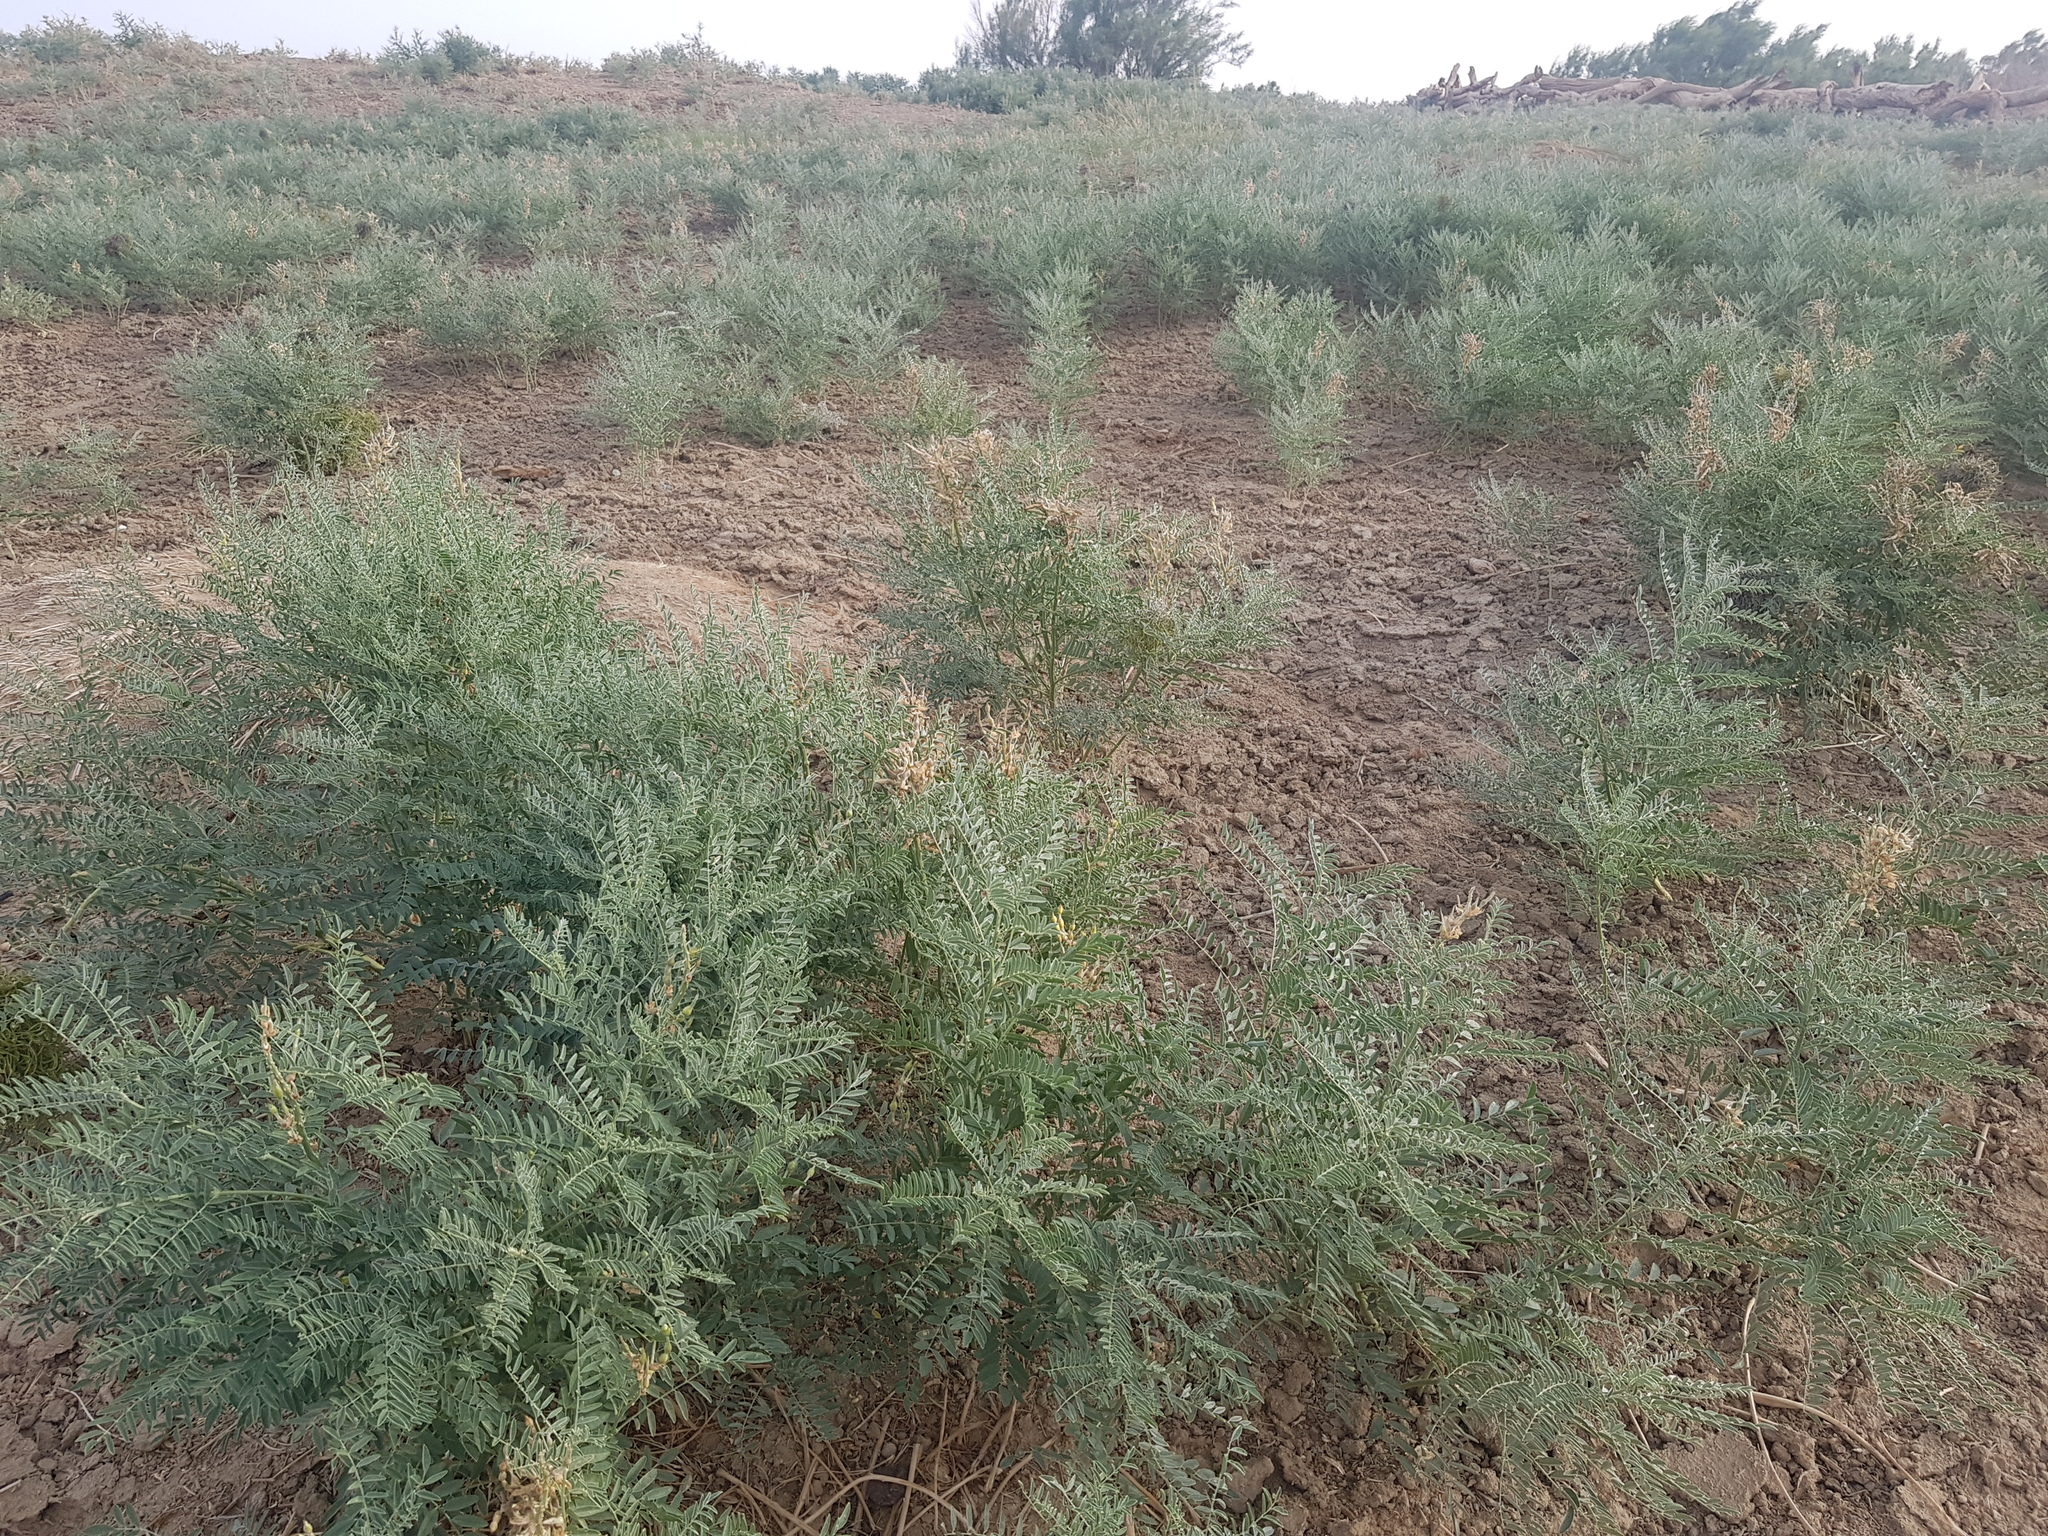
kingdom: Plantae
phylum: Tracheophyta
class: Magnoliopsida
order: Fabales
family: Fabaceae
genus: Sophora
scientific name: Sophora alopecuroides
